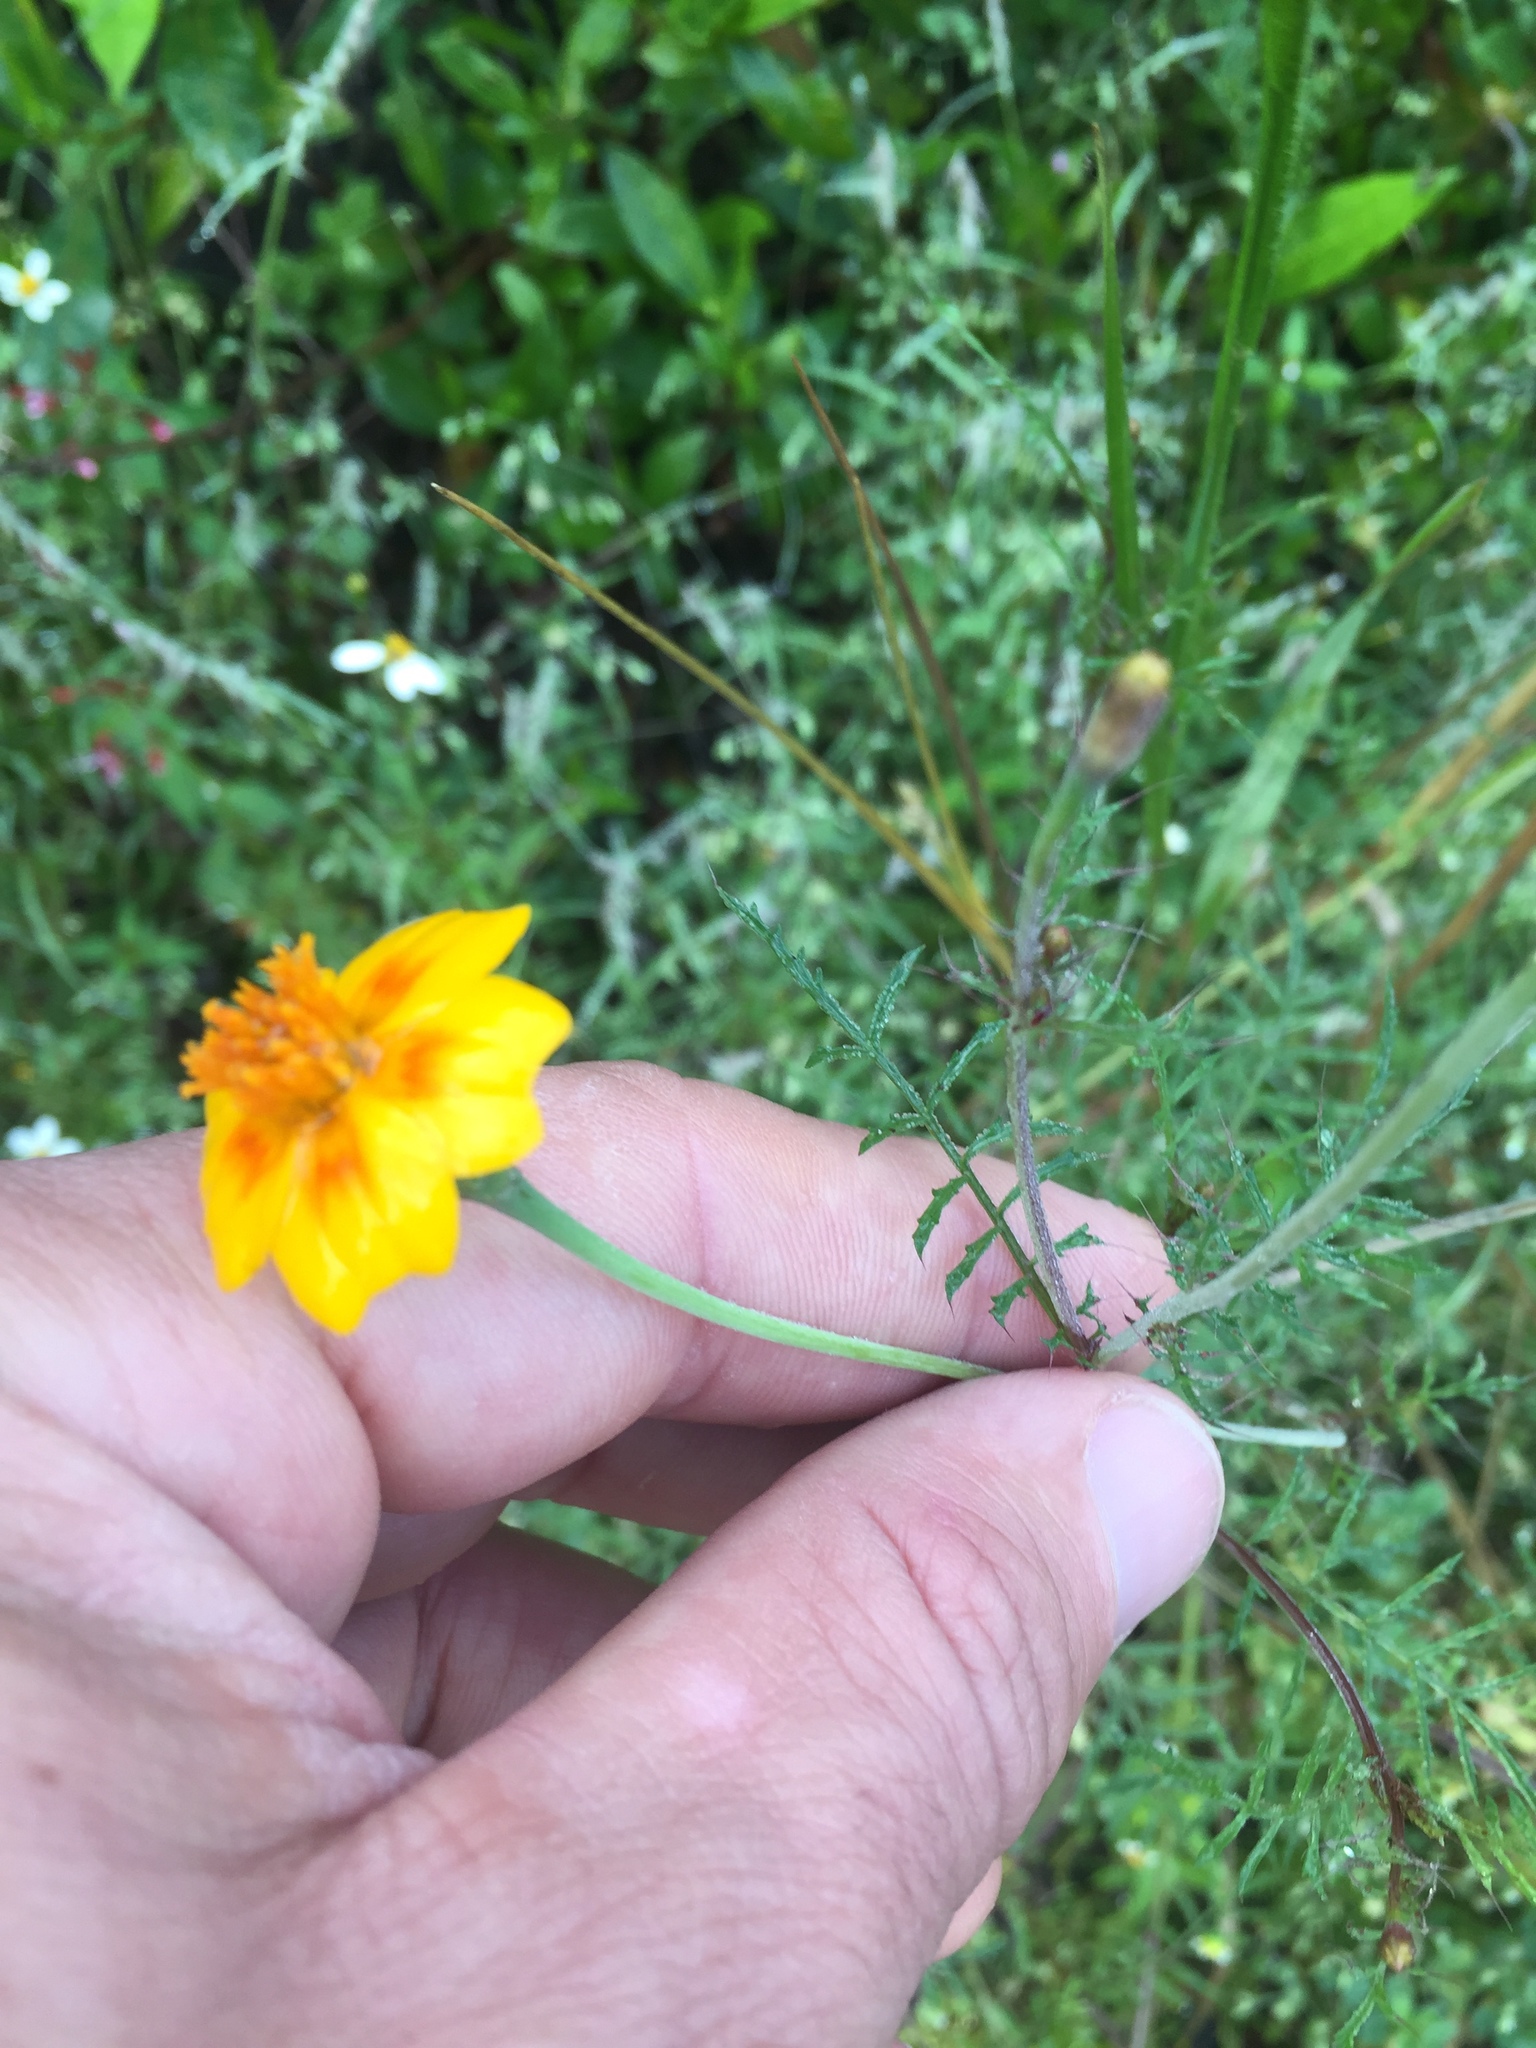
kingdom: Plantae
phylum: Tracheophyta
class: Magnoliopsida
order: Asterales
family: Asteraceae
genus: Tagetes
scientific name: Tagetes lunulata
